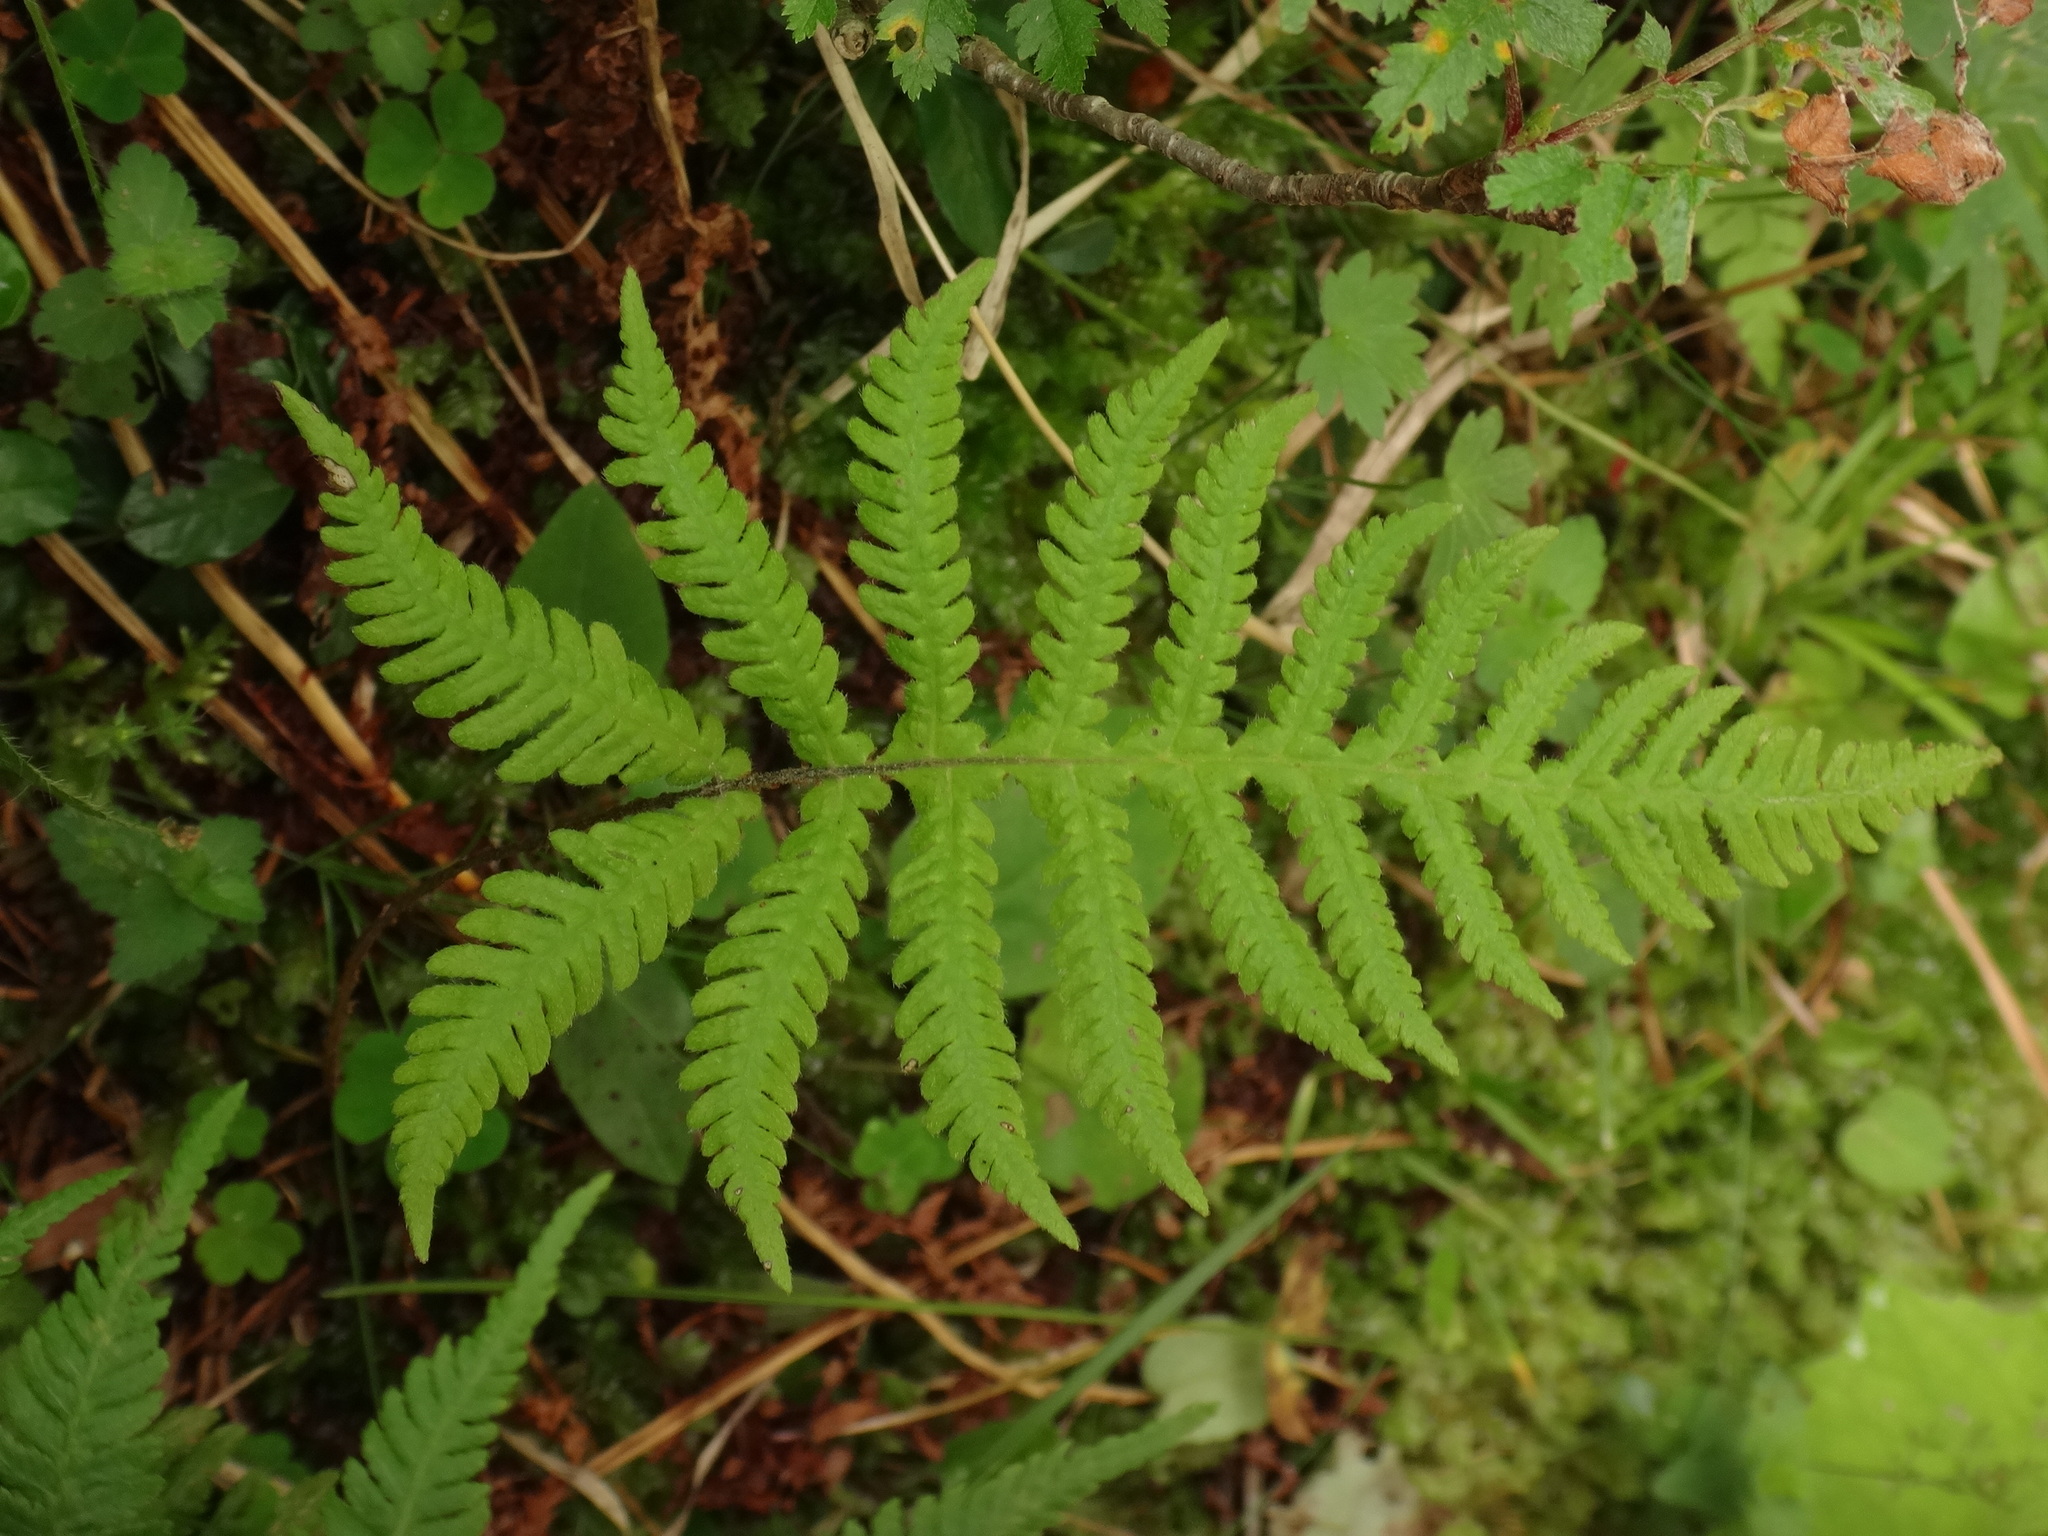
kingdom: Plantae
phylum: Tracheophyta
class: Polypodiopsida
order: Polypodiales
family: Thelypteridaceae
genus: Phegopteris
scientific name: Phegopteris connectilis
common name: Beech fern
